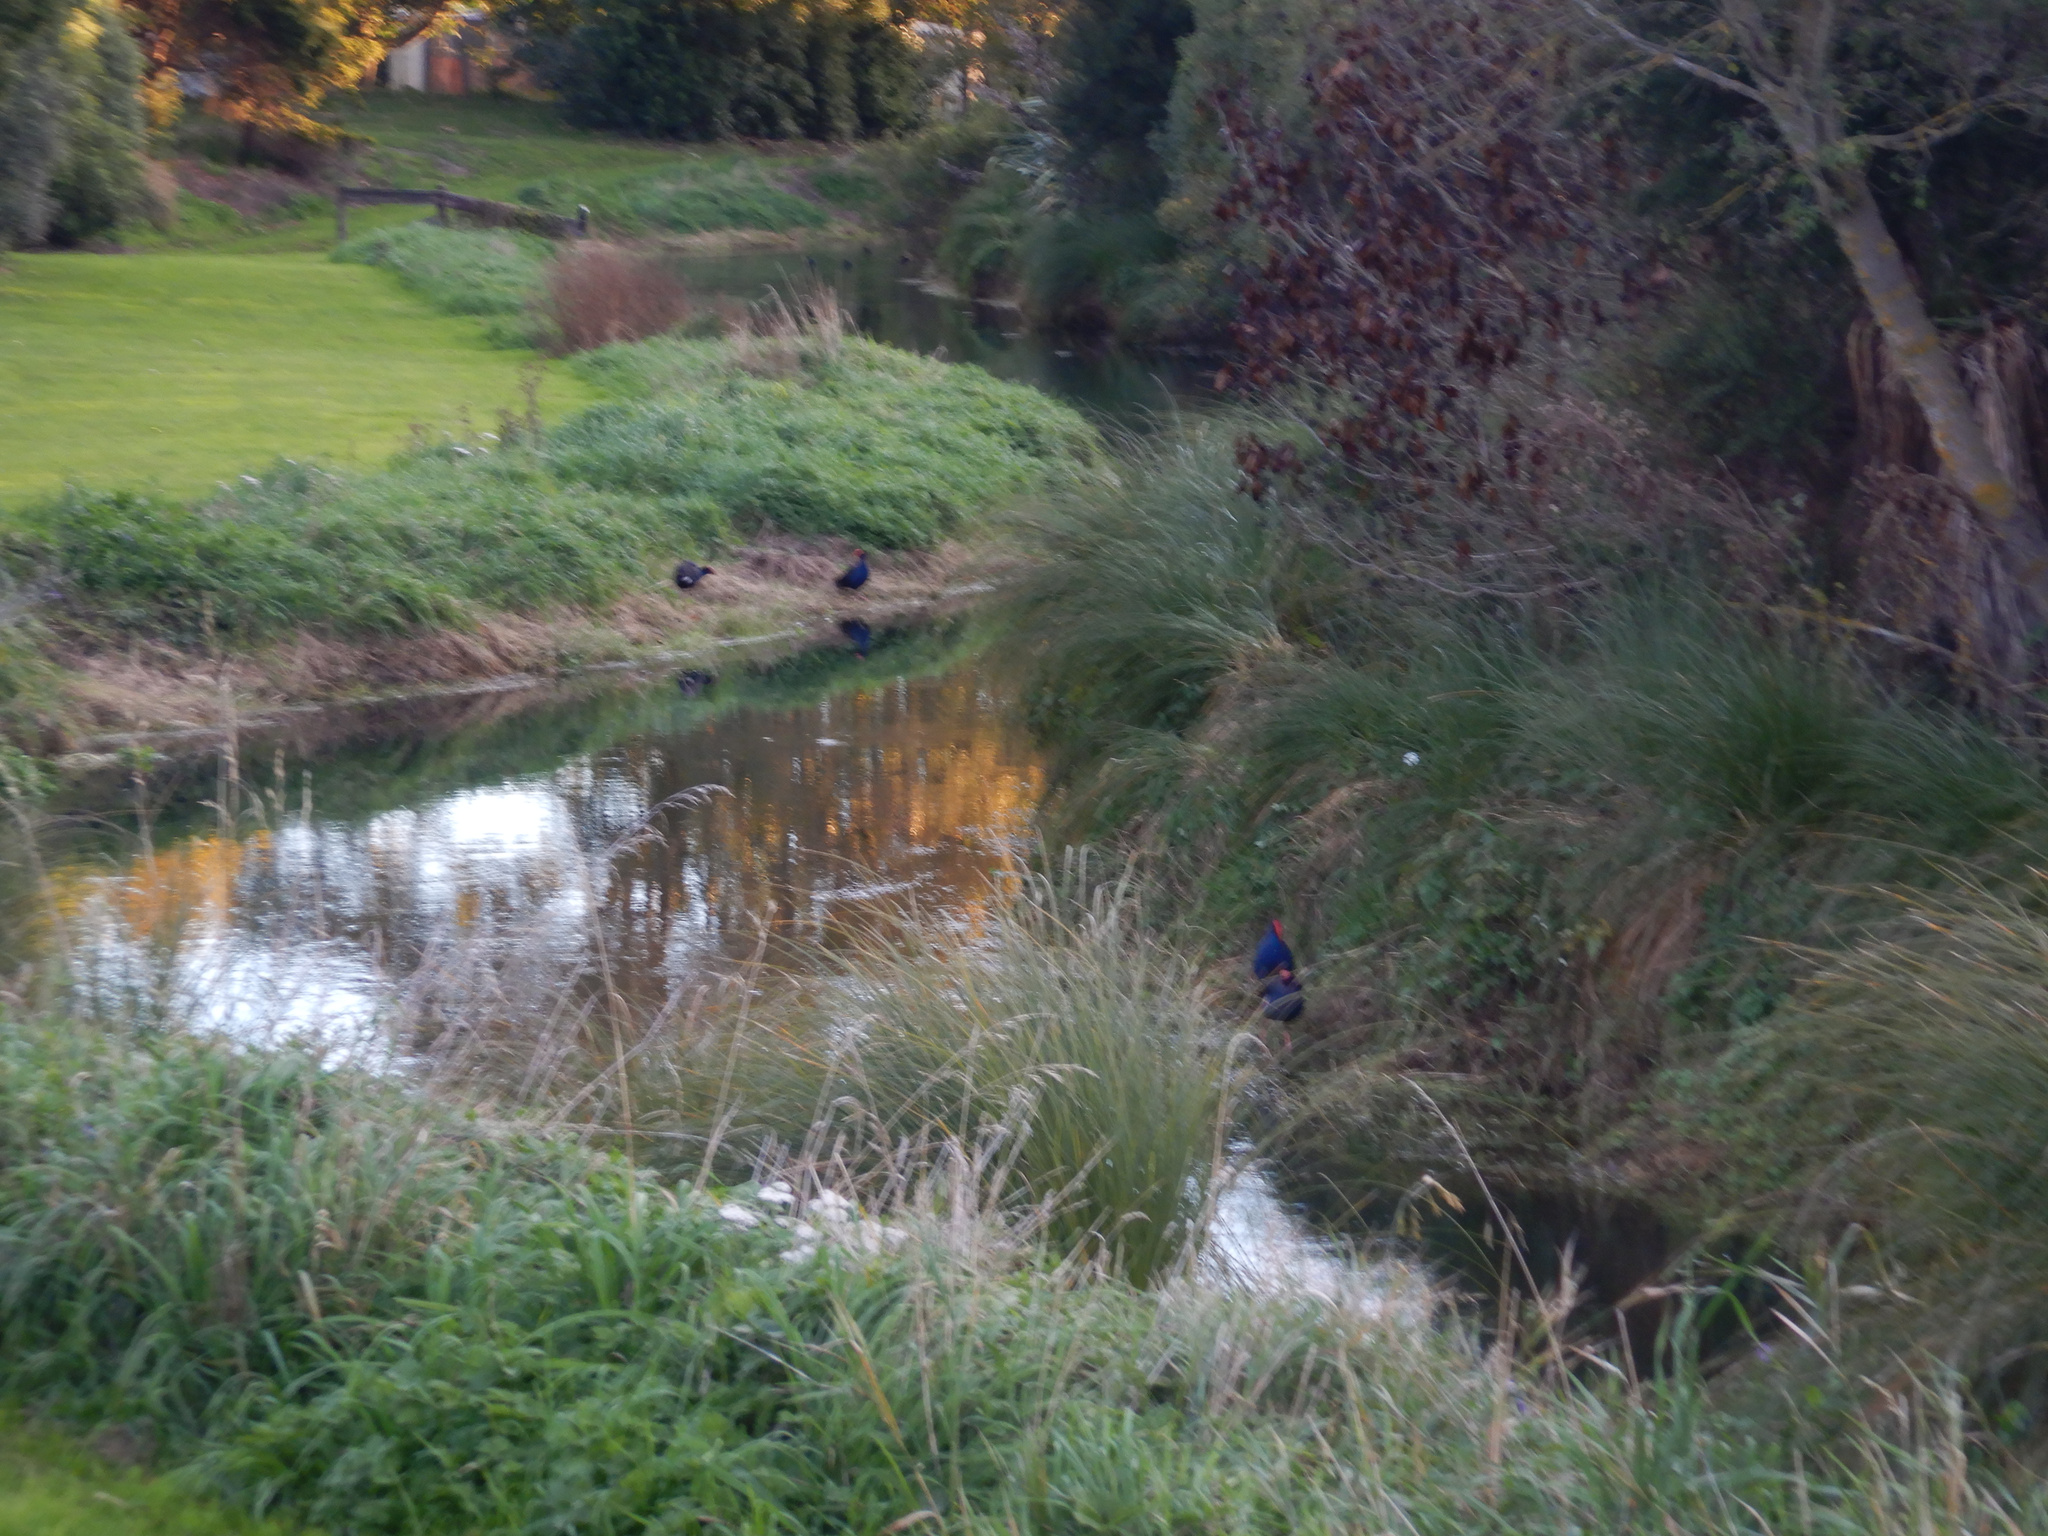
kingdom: Animalia
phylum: Chordata
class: Aves
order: Gruiformes
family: Rallidae
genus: Porphyrio
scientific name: Porphyrio melanotus
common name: Australasian swamphen
